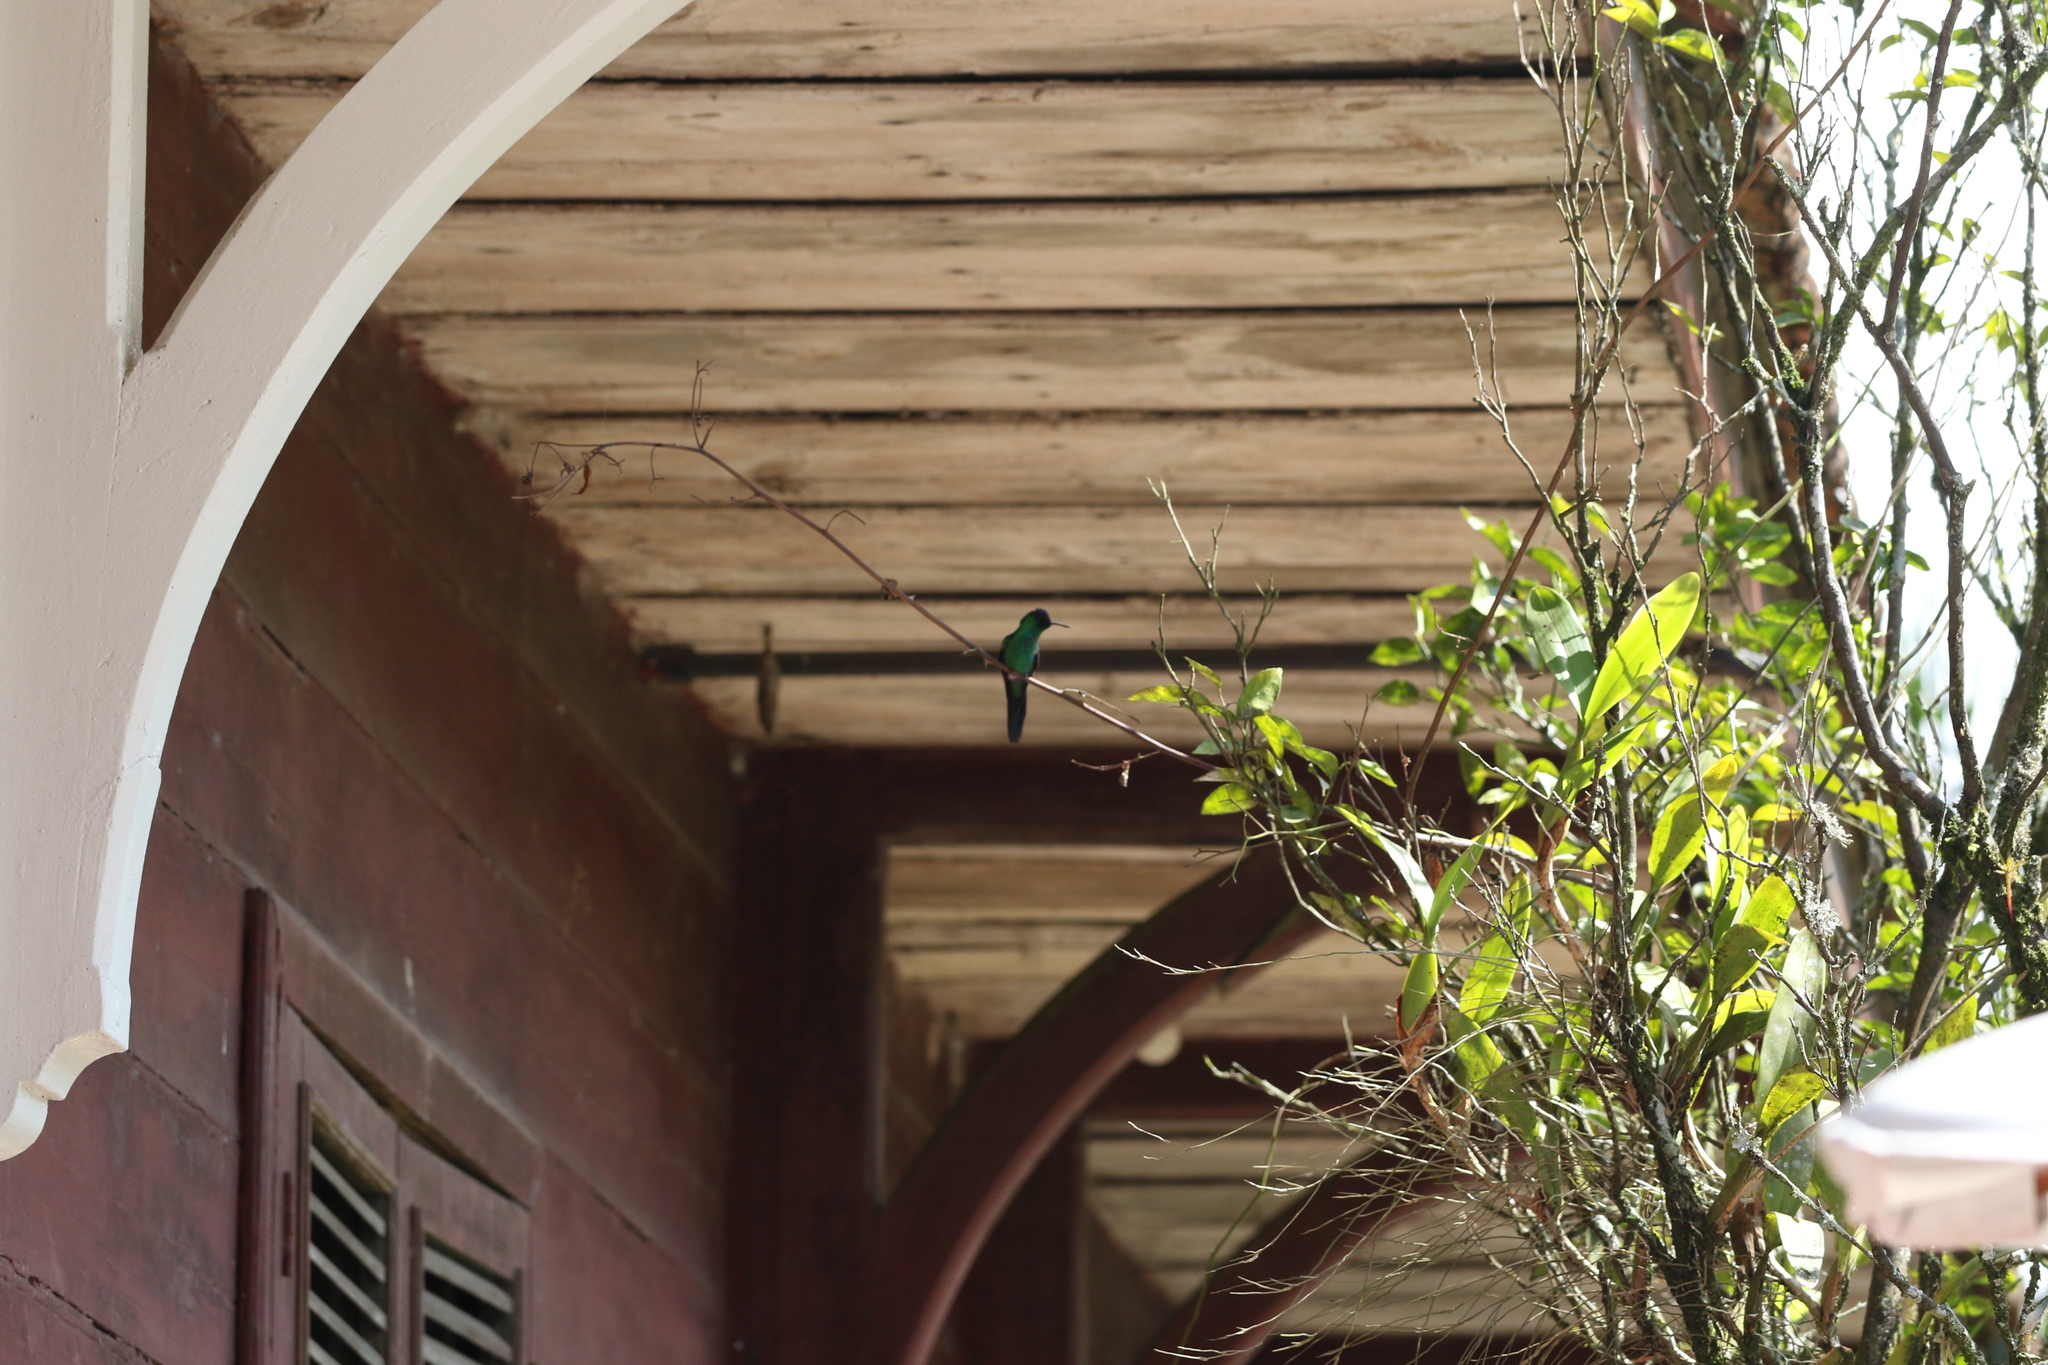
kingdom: Animalia
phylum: Chordata
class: Aves
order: Apodiformes
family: Trochilidae
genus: Thalurania
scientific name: Thalurania glaucopis
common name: Violet-capped woodnymph
